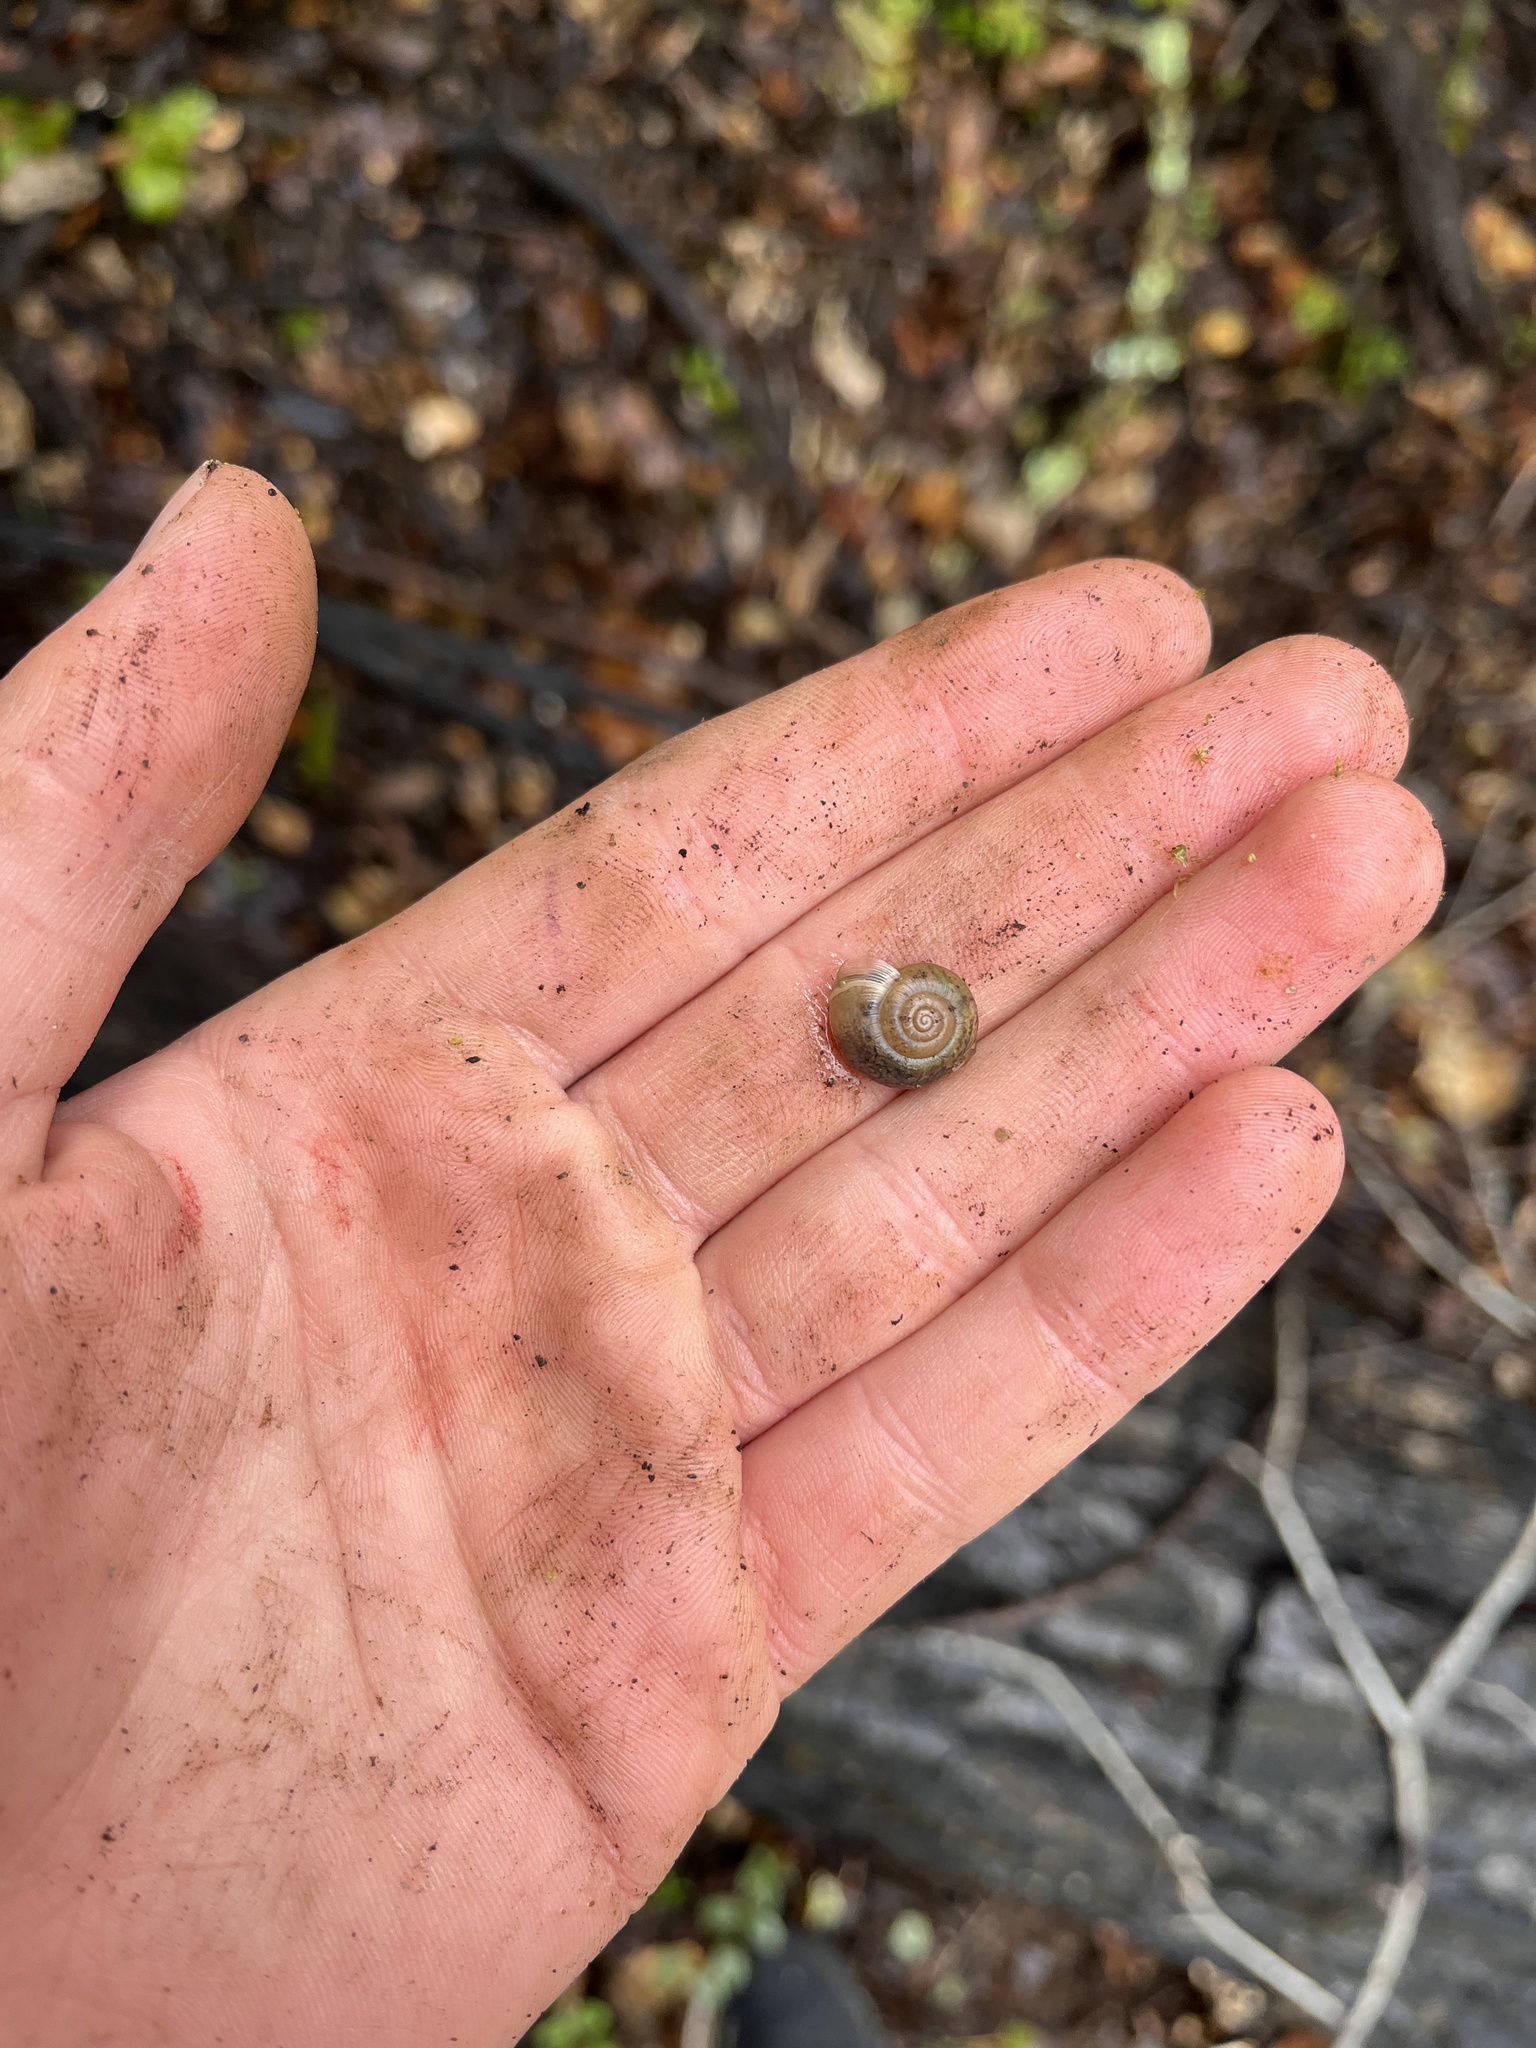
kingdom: Animalia
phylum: Mollusca
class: Gastropoda
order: Stylommatophora
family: Haplotrematidae
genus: Haplotrema
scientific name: Haplotrema minimum
